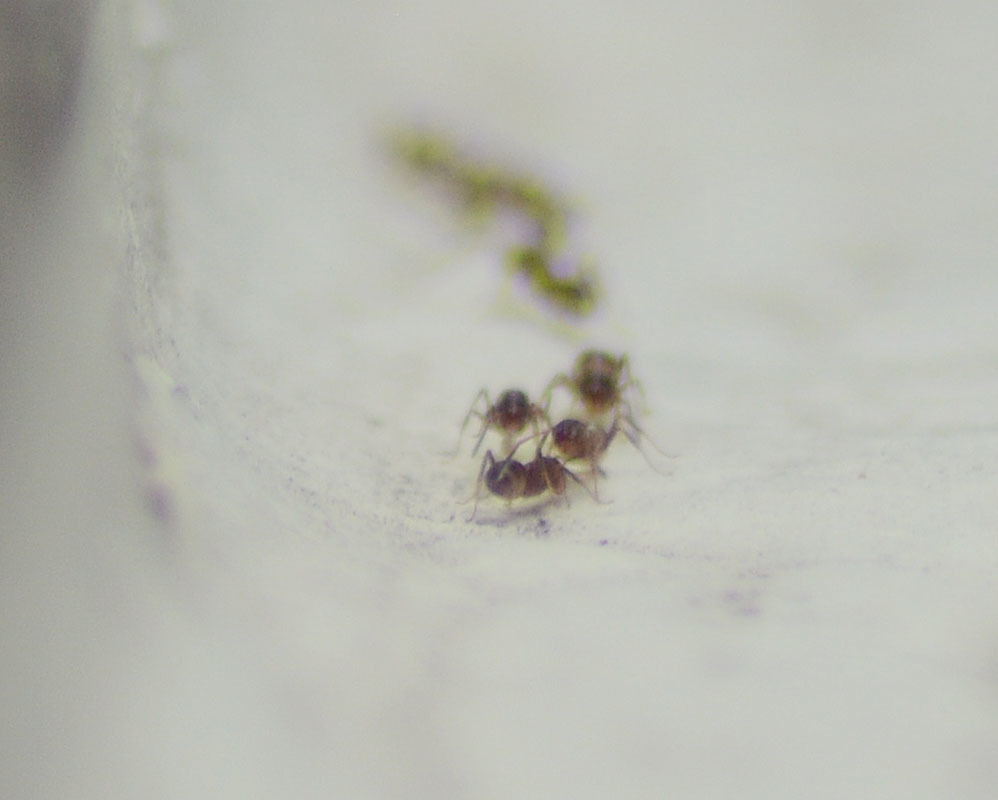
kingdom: Animalia
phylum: Arthropoda
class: Insecta
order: Hymenoptera
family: Formicidae
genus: Linepithema
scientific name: Linepithema humile
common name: Argentine ant
